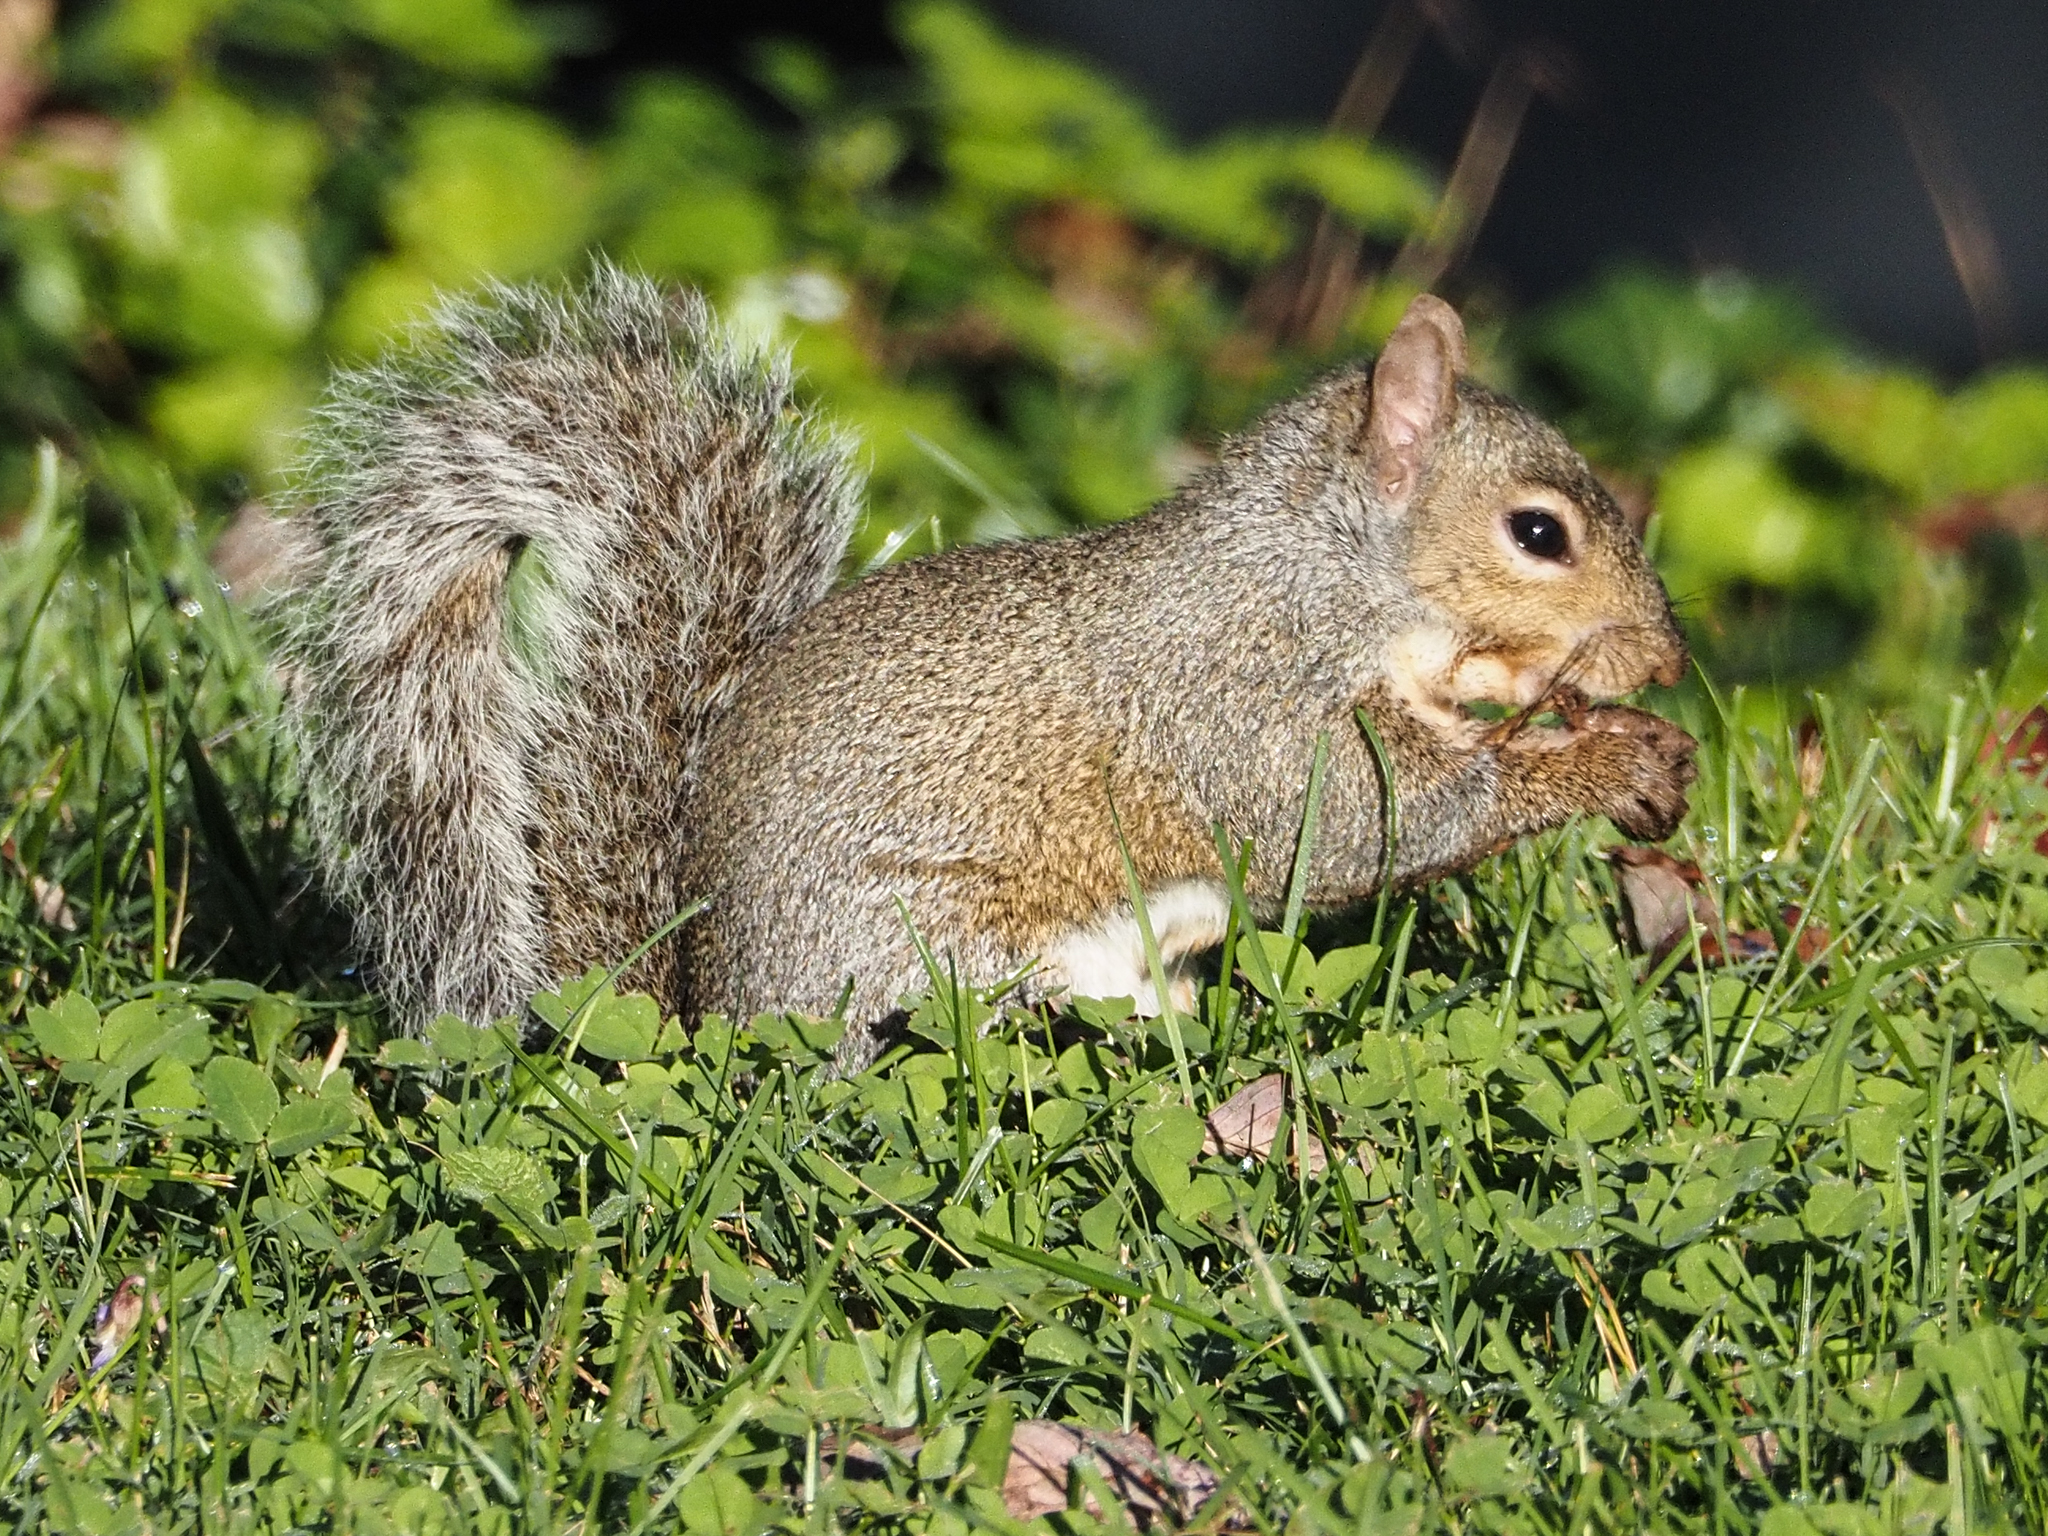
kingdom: Animalia
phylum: Chordata
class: Mammalia
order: Rodentia
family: Sciuridae
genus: Sciurus
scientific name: Sciurus carolinensis
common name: Eastern gray squirrel
